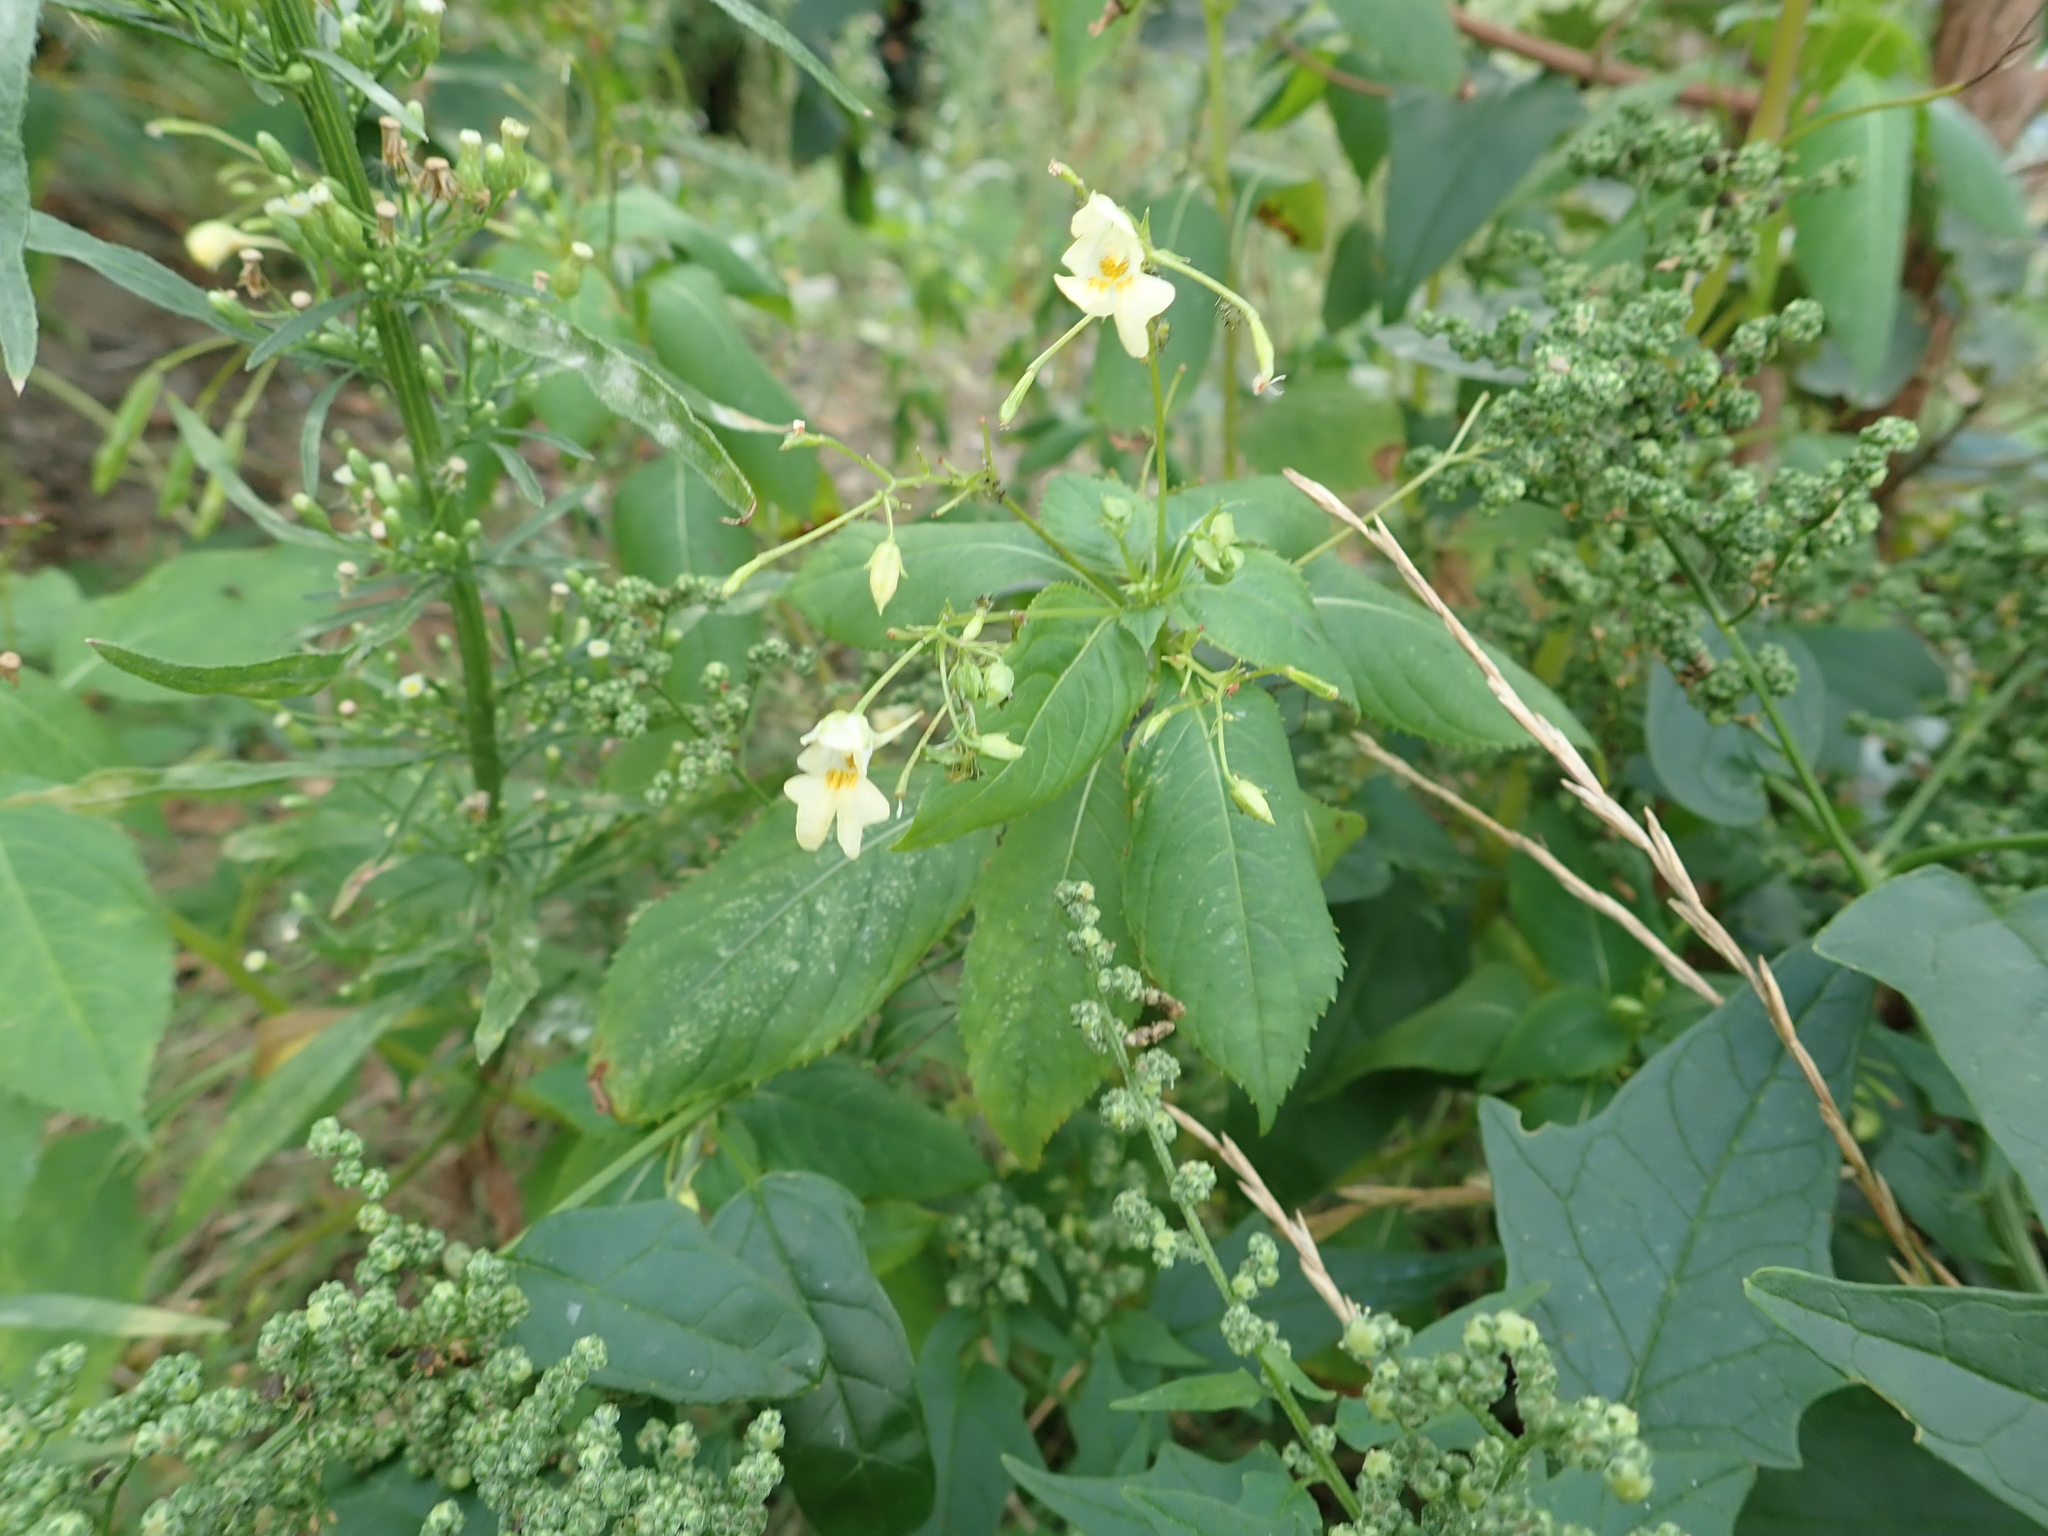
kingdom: Plantae
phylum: Tracheophyta
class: Magnoliopsida
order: Ericales
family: Balsaminaceae
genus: Impatiens
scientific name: Impatiens parviflora
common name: Small balsam
